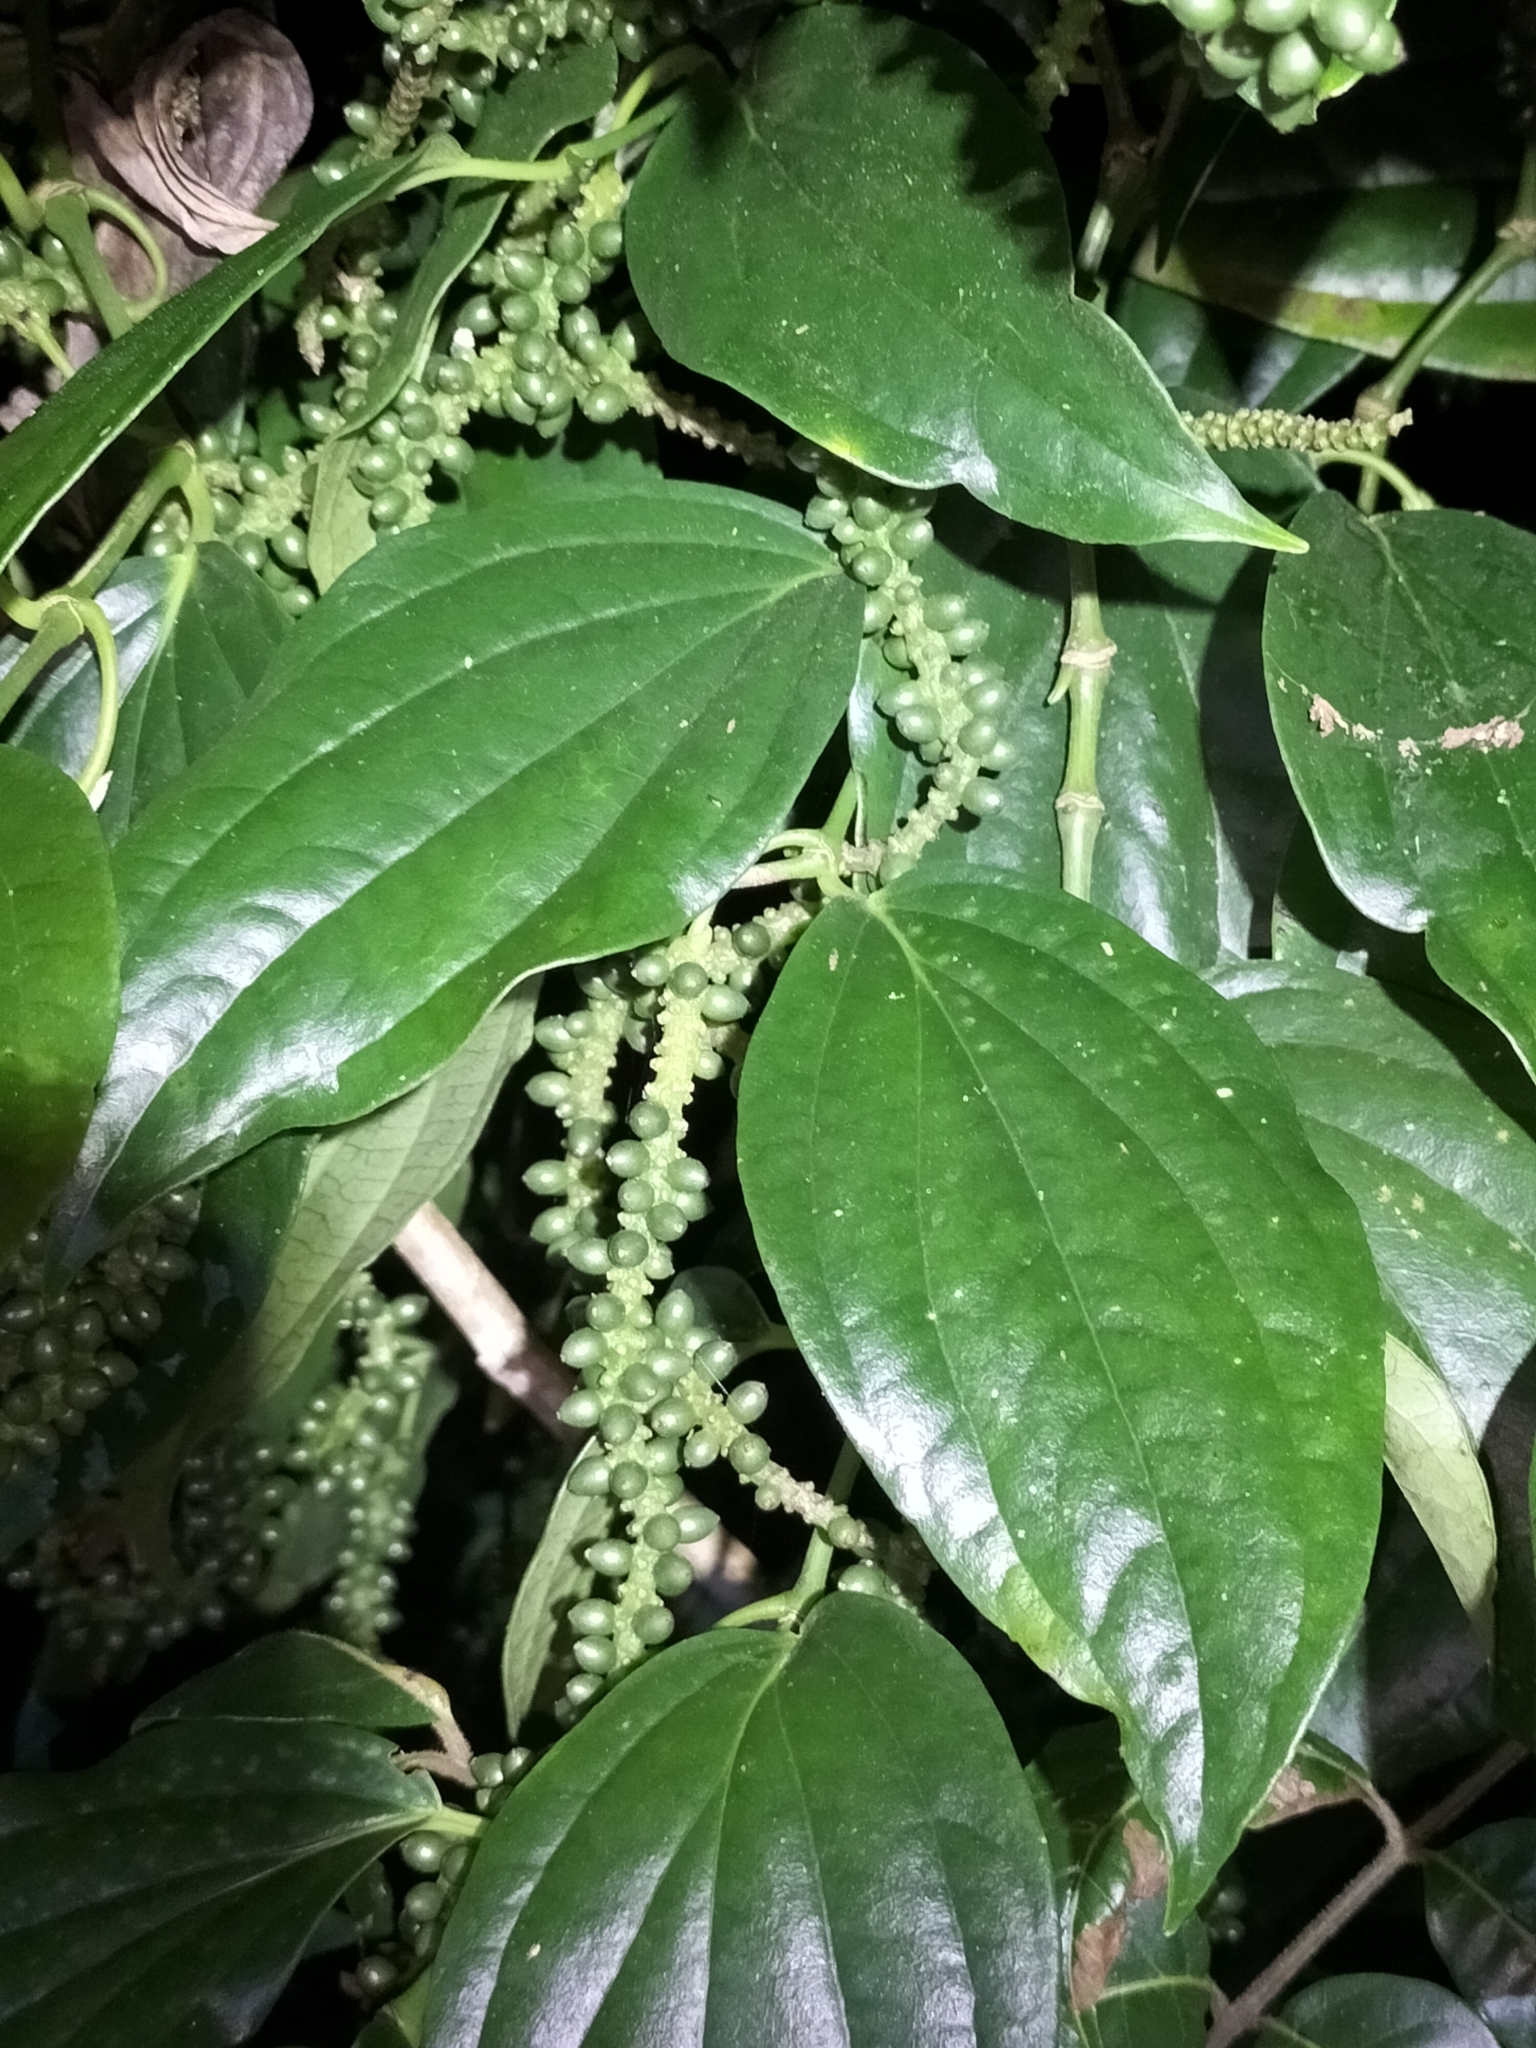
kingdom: Plantae
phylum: Tracheophyta
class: Magnoliopsida
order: Piperales
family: Piperaceae
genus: Piper
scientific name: Piper lanatum
